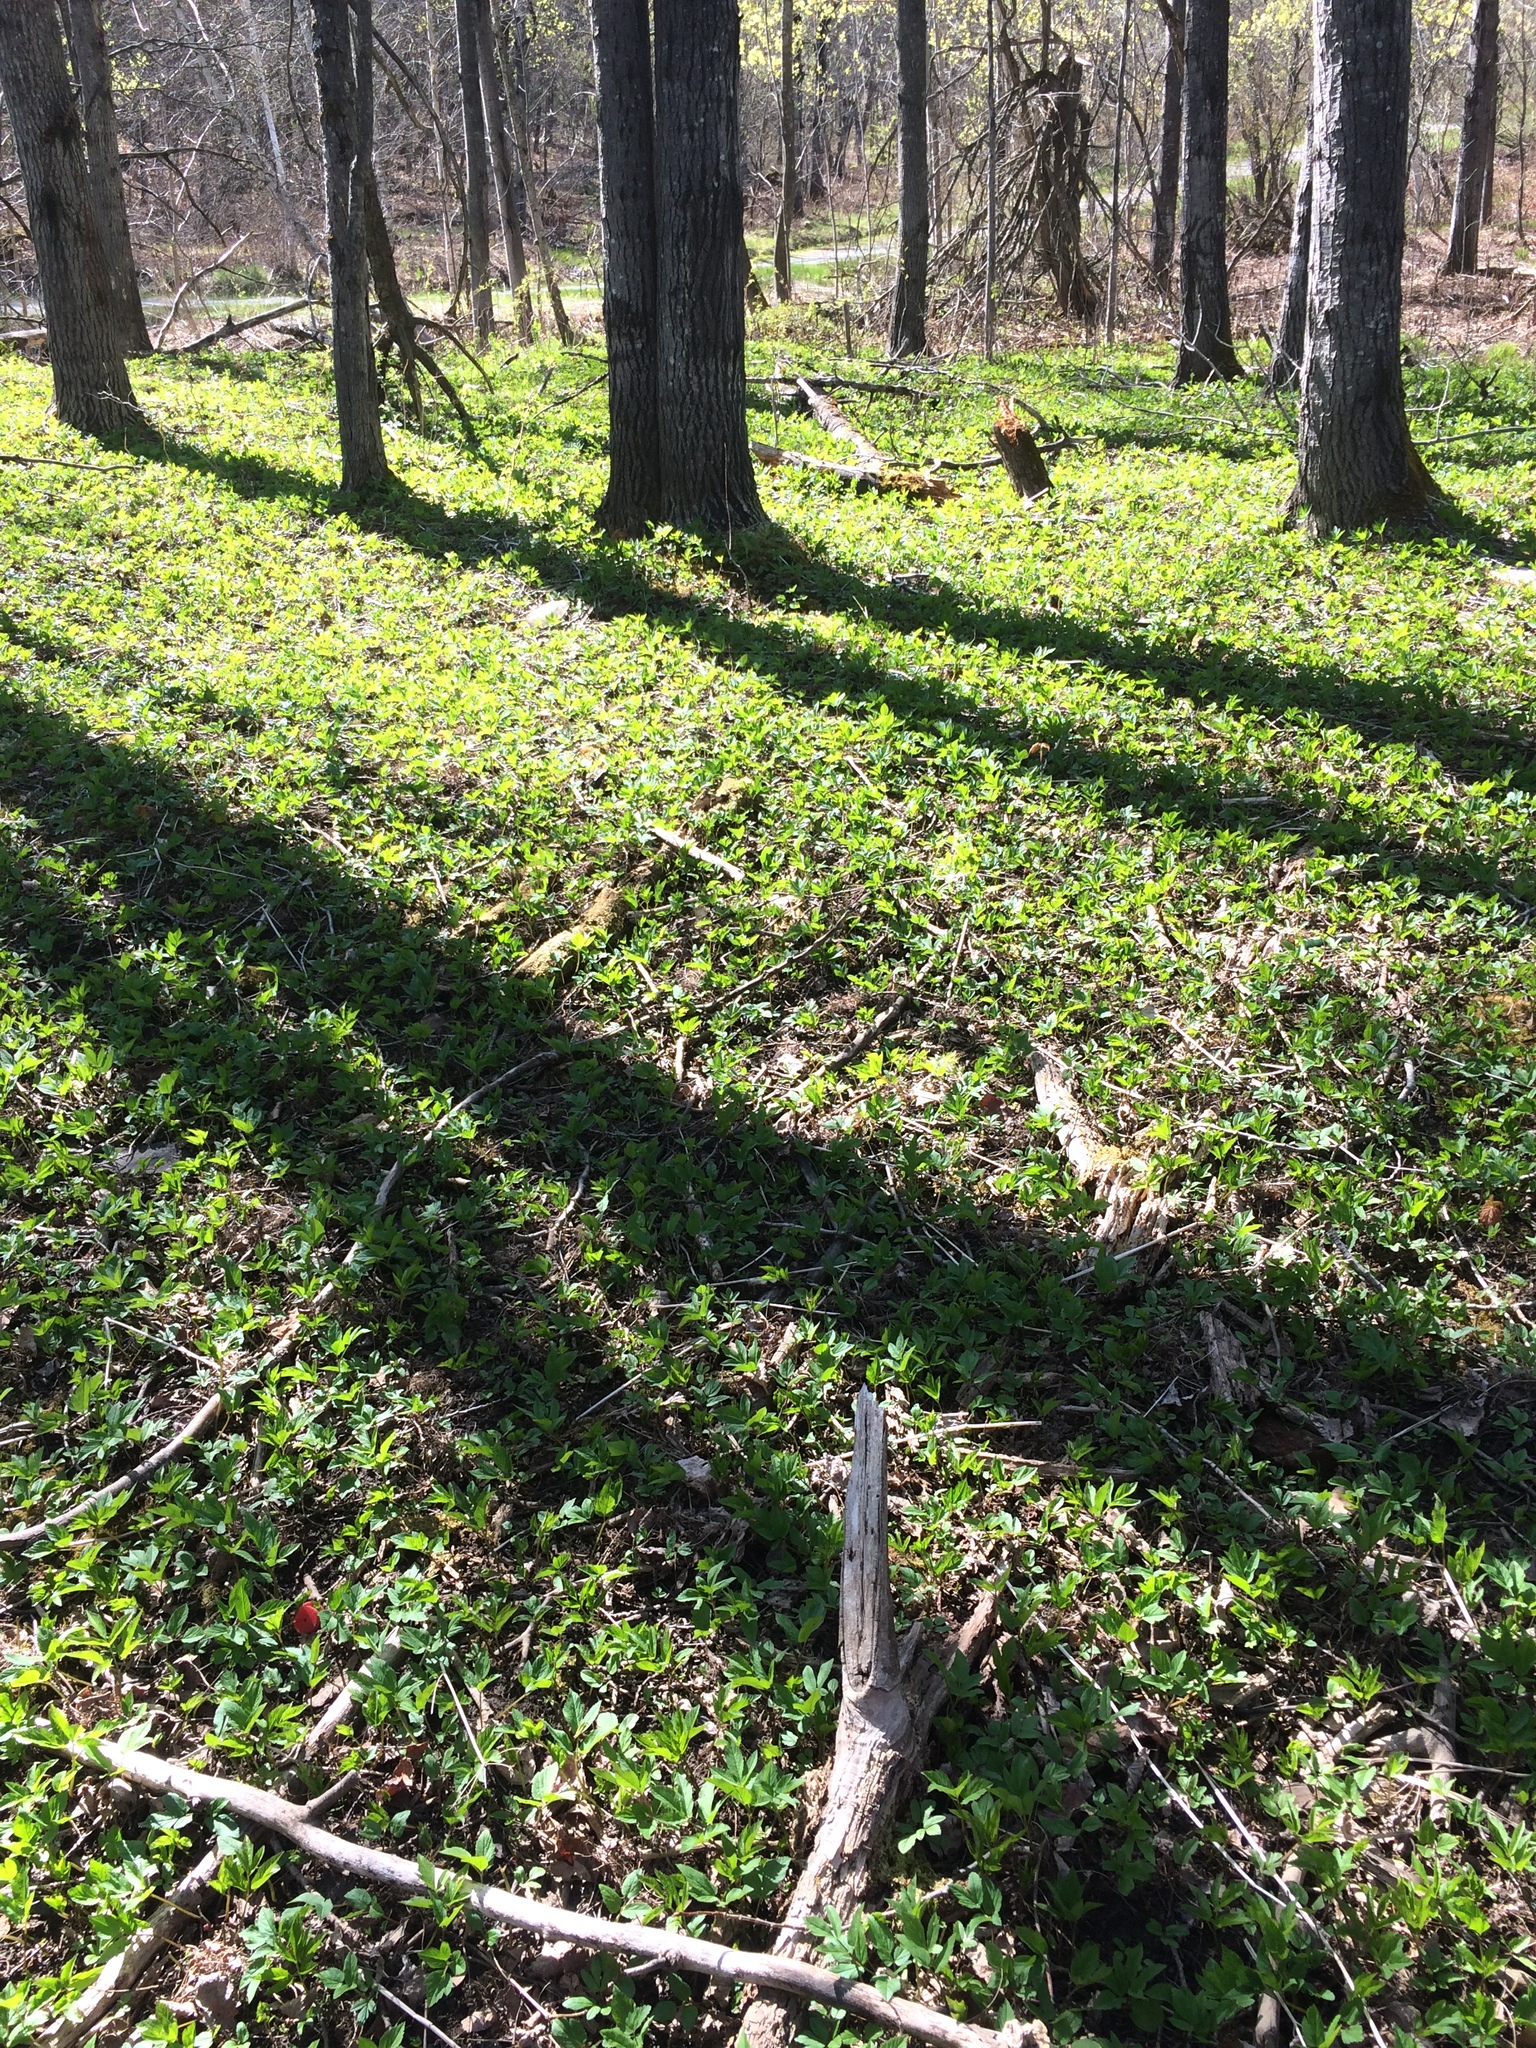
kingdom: Plantae
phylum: Tracheophyta
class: Magnoliopsida
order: Apiales
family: Apiaceae
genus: Aegopodium
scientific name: Aegopodium podagraria
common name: Ground-elder
